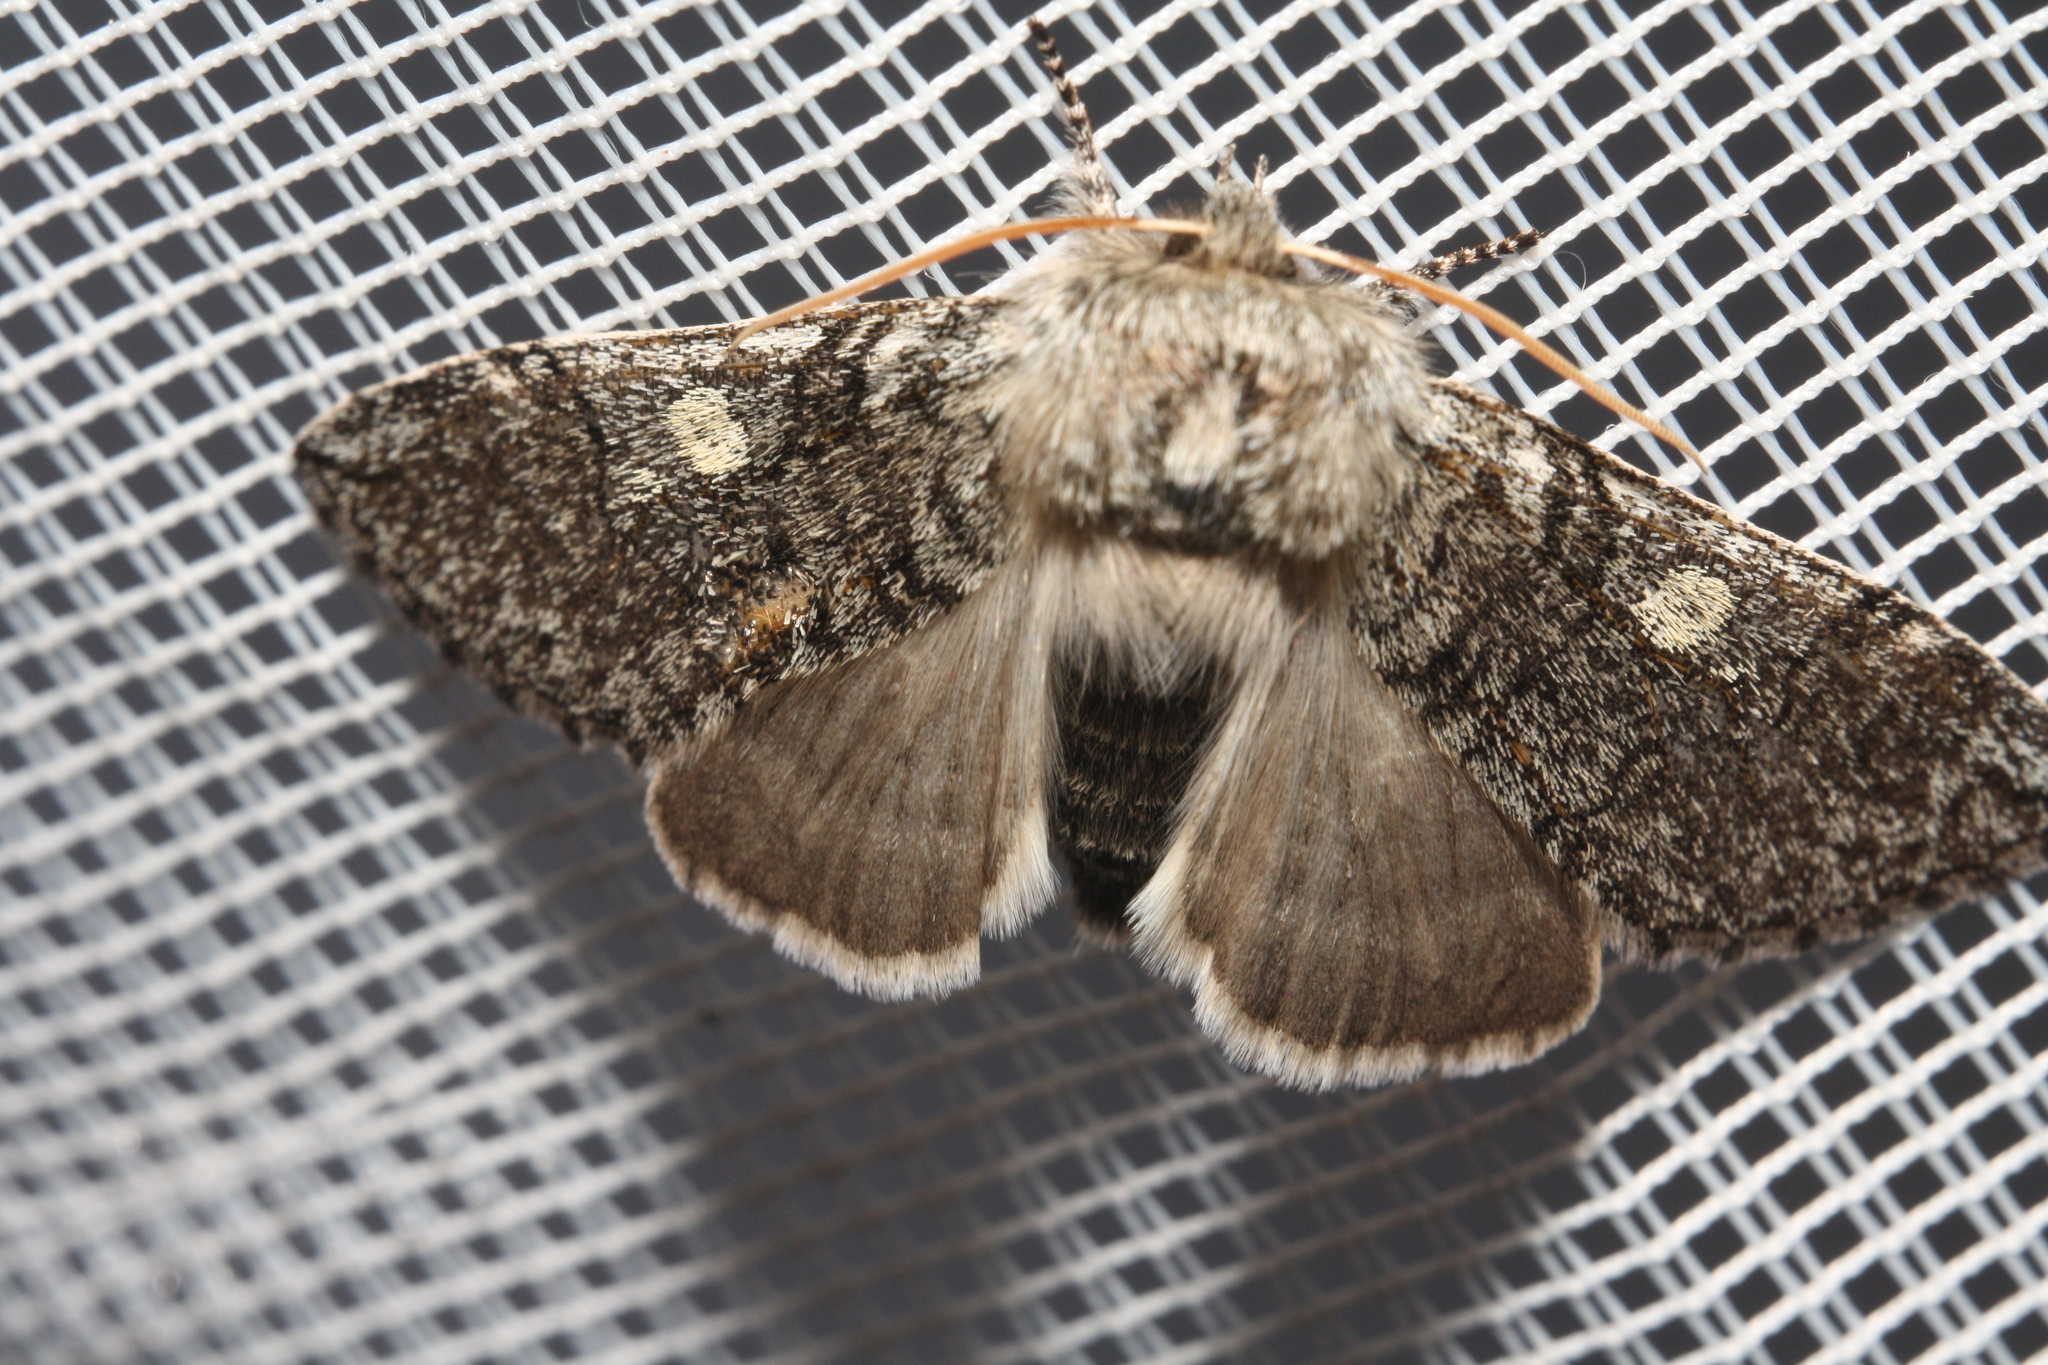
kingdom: Animalia
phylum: Arthropoda
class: Insecta
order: Lepidoptera
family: Drepanidae
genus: Achlya
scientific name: Achlya flavicornis
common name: Yellow horned
